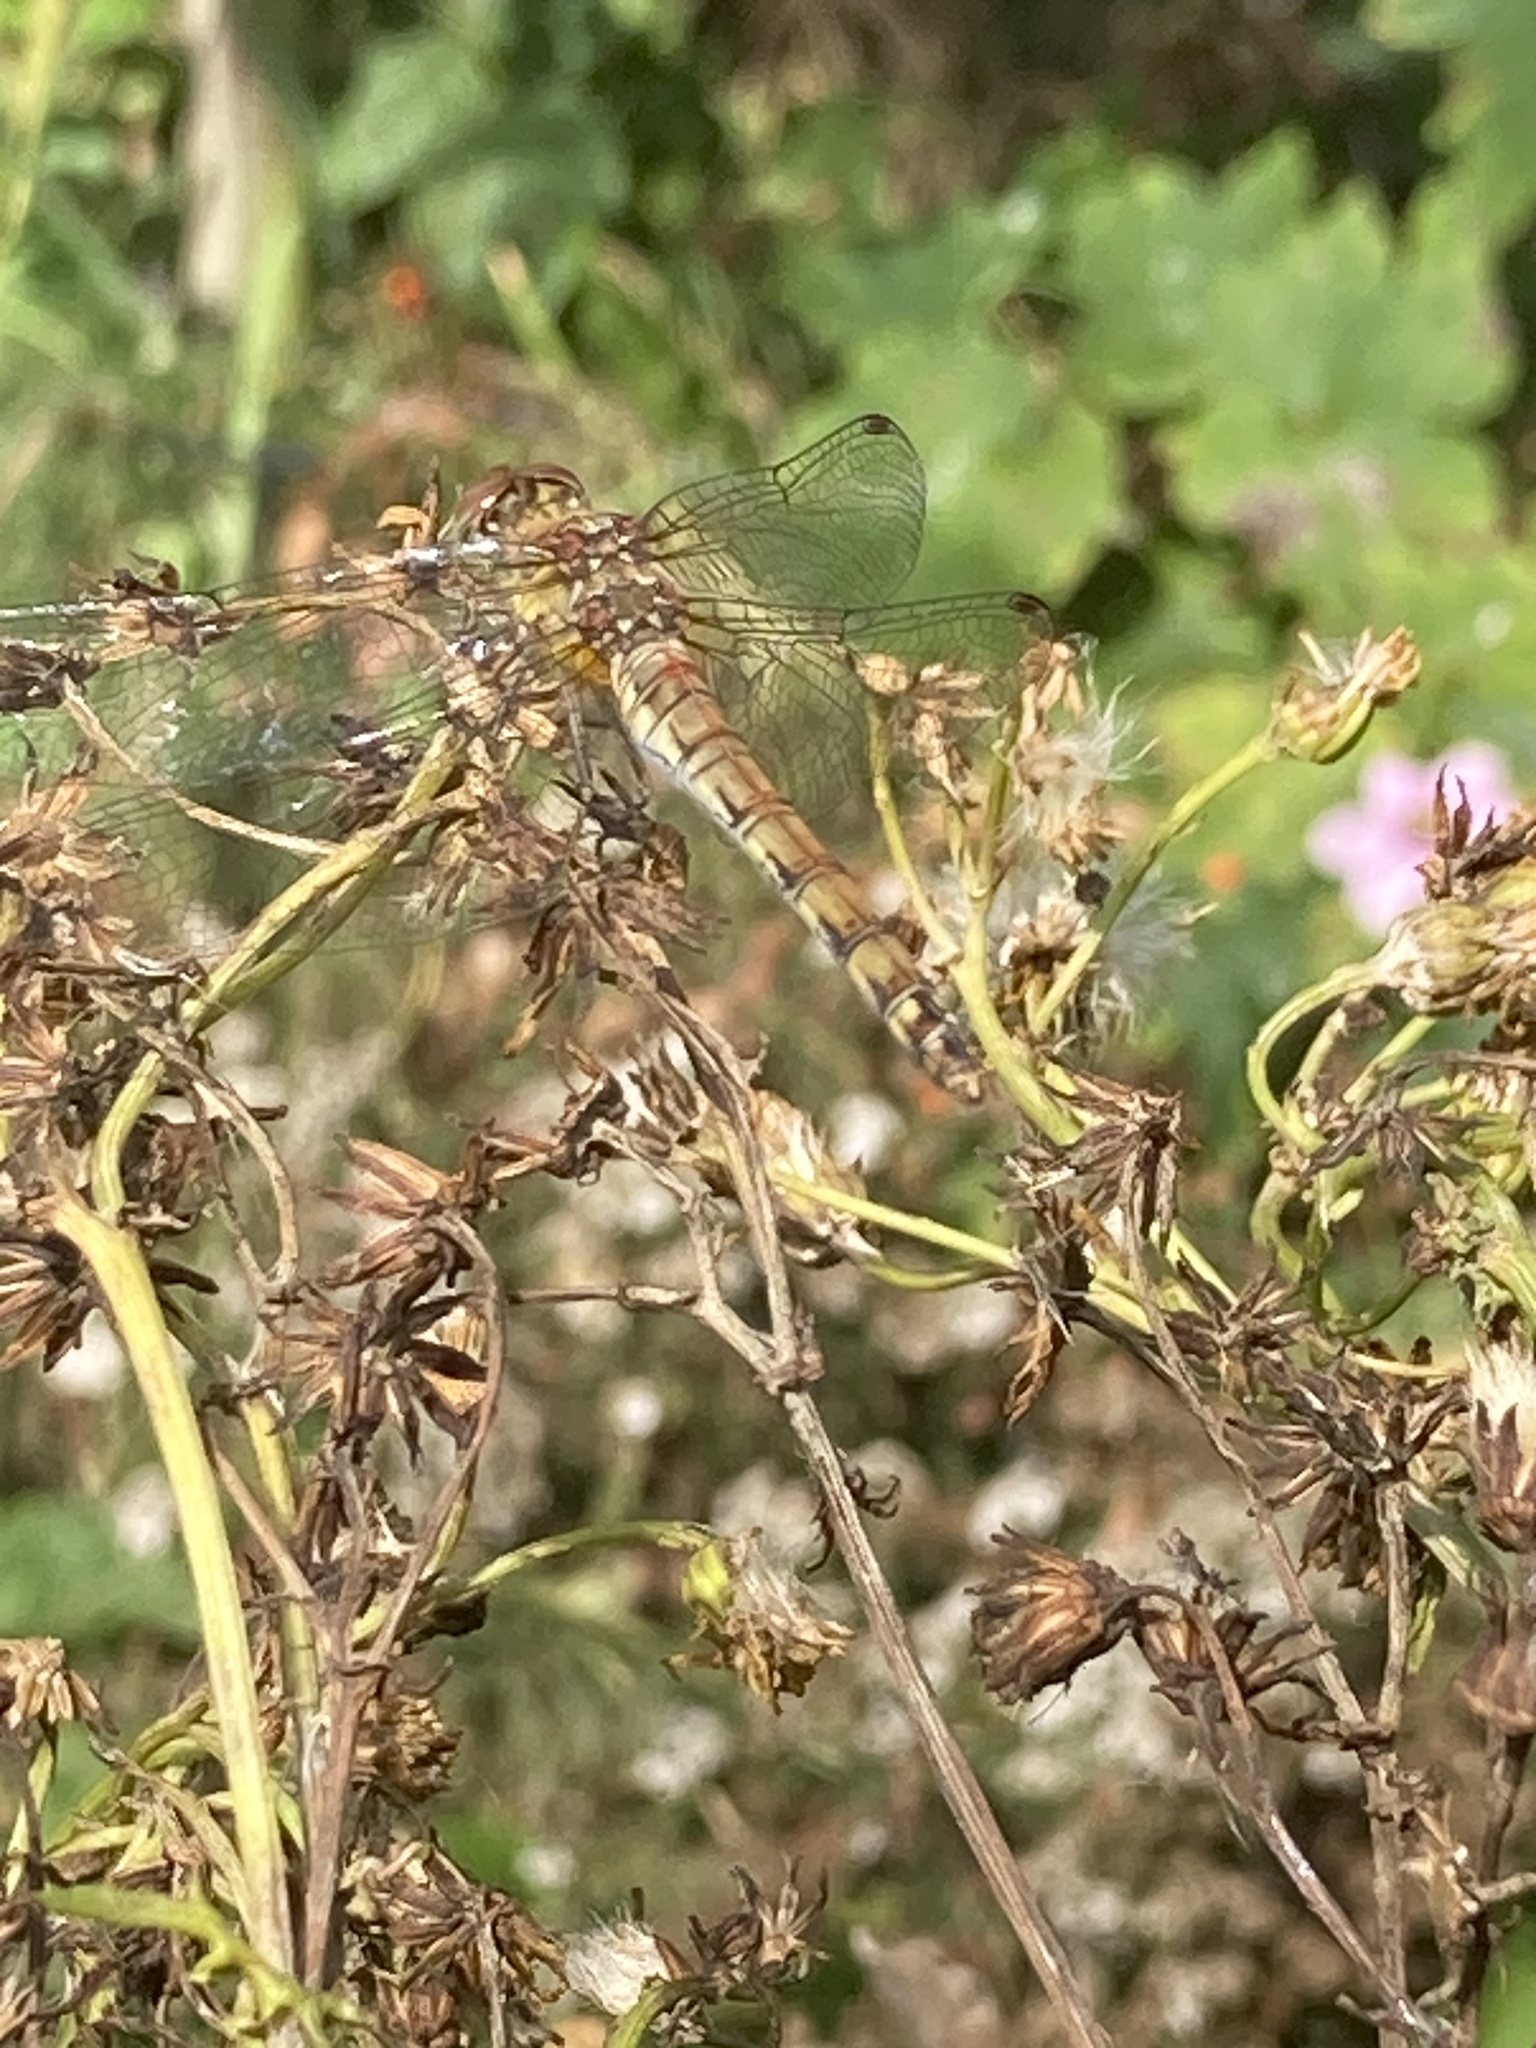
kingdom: Animalia
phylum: Arthropoda
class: Insecta
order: Odonata
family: Libellulidae
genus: Sympetrum
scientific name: Sympetrum striolatum
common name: Common darter
